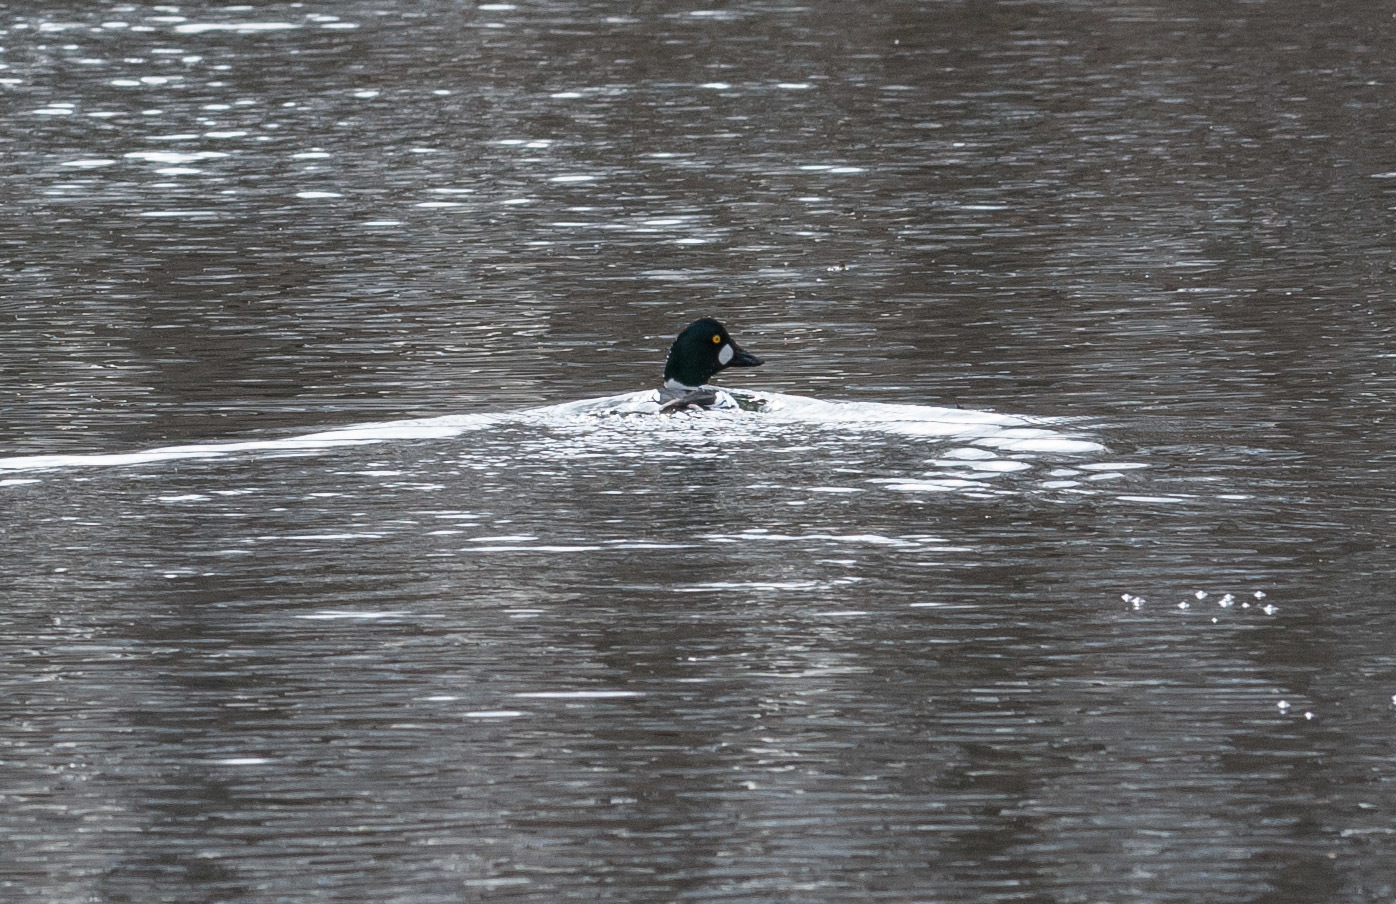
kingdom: Animalia
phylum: Chordata
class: Aves
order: Anseriformes
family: Anatidae
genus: Bucephala
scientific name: Bucephala clangula
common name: Common goldeneye
